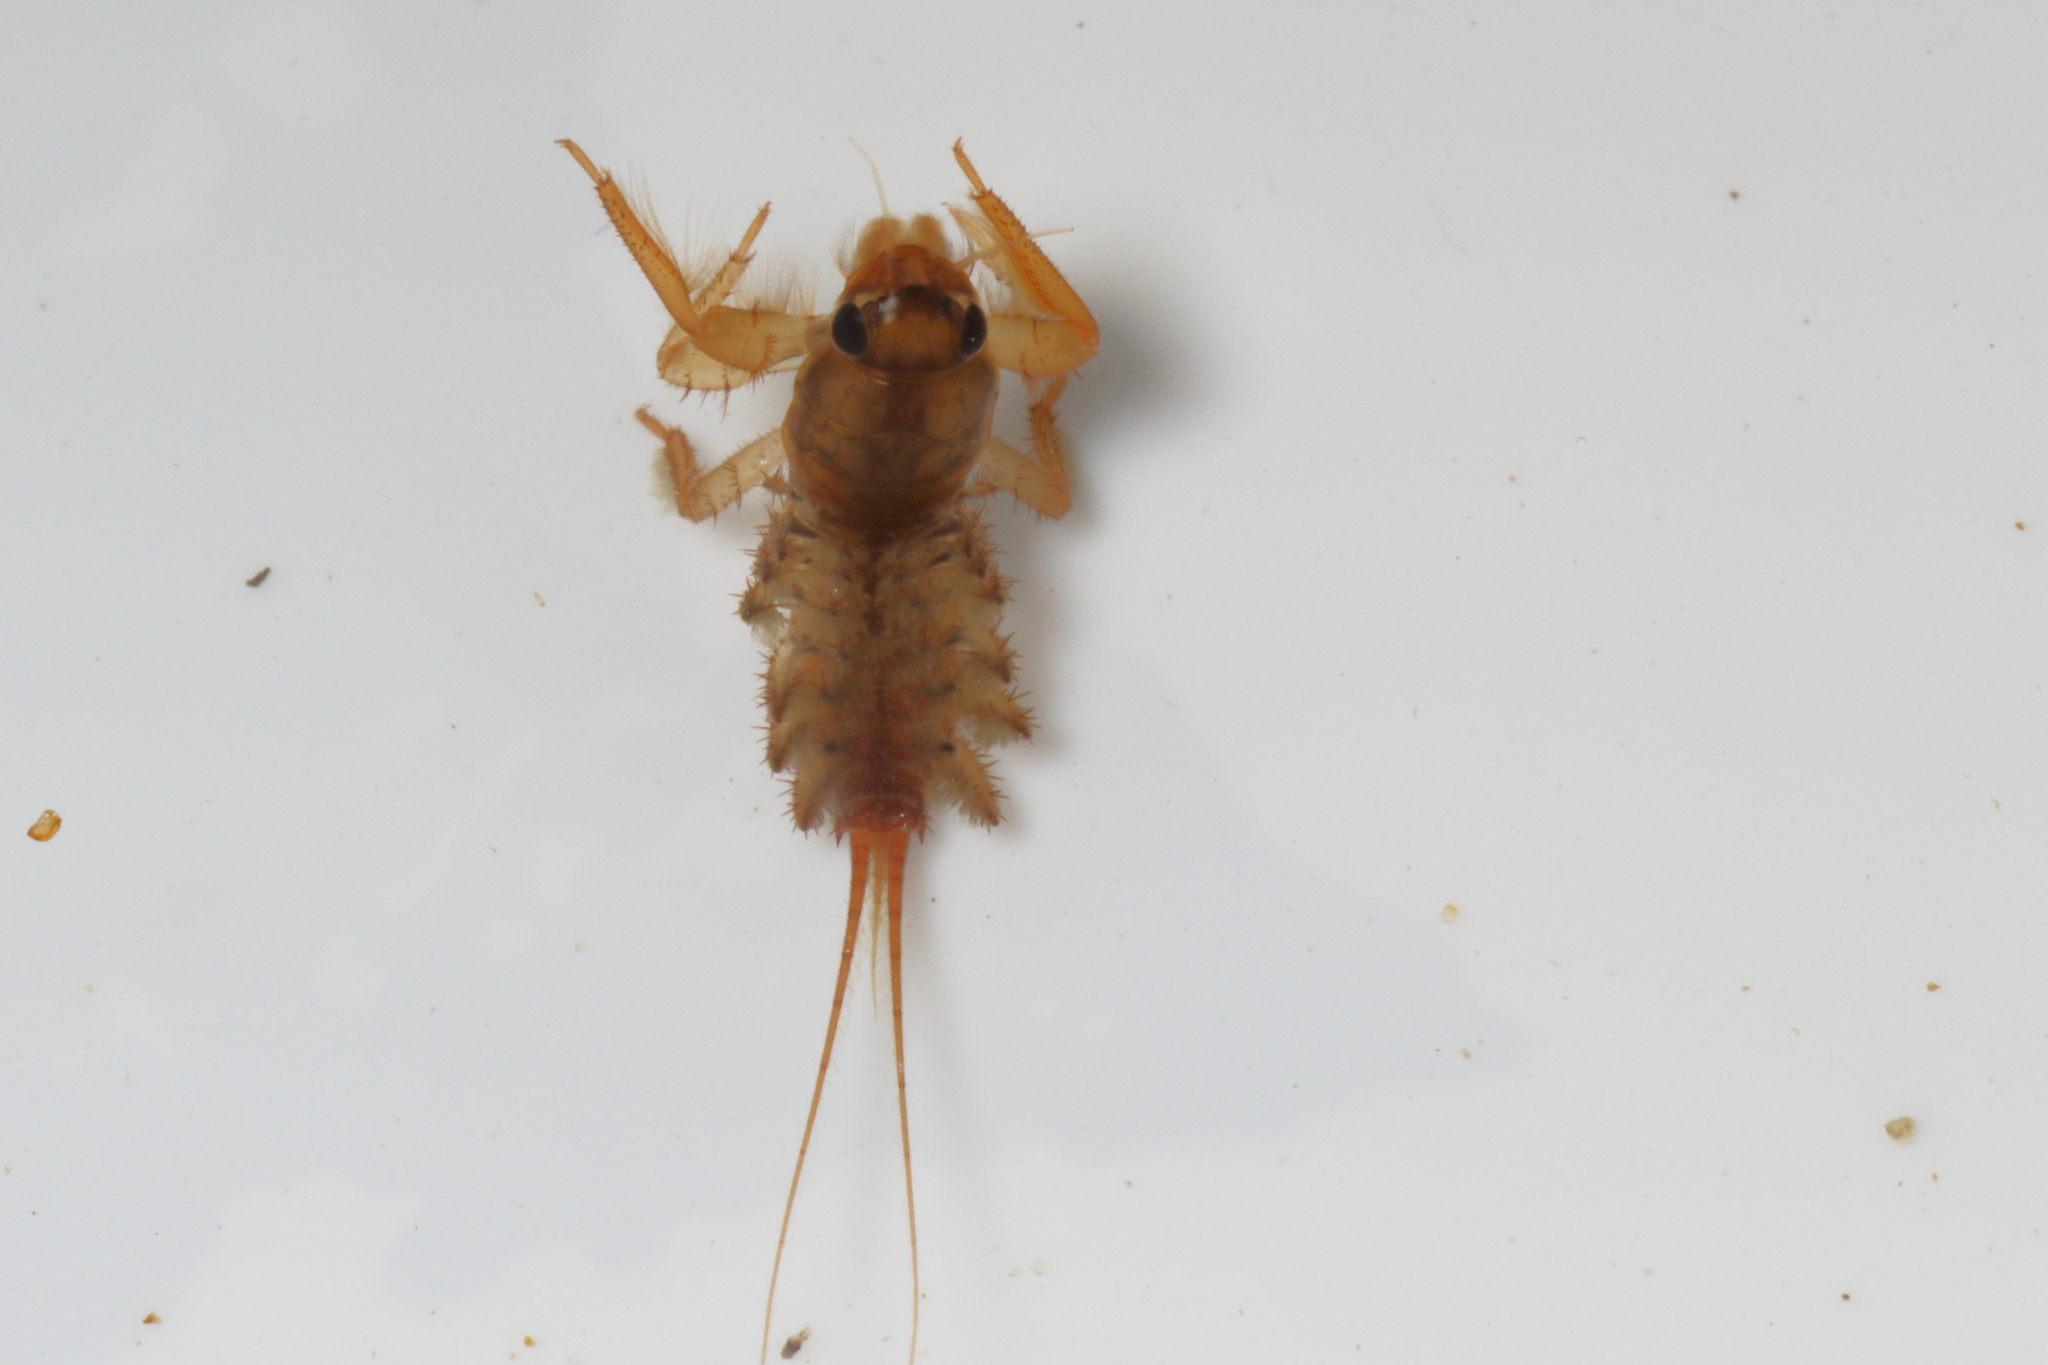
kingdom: Animalia
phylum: Arthropoda
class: Insecta
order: Ephemeroptera
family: Coloburiscidae
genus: Coloburiscus
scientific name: Coloburiscus humeralis
